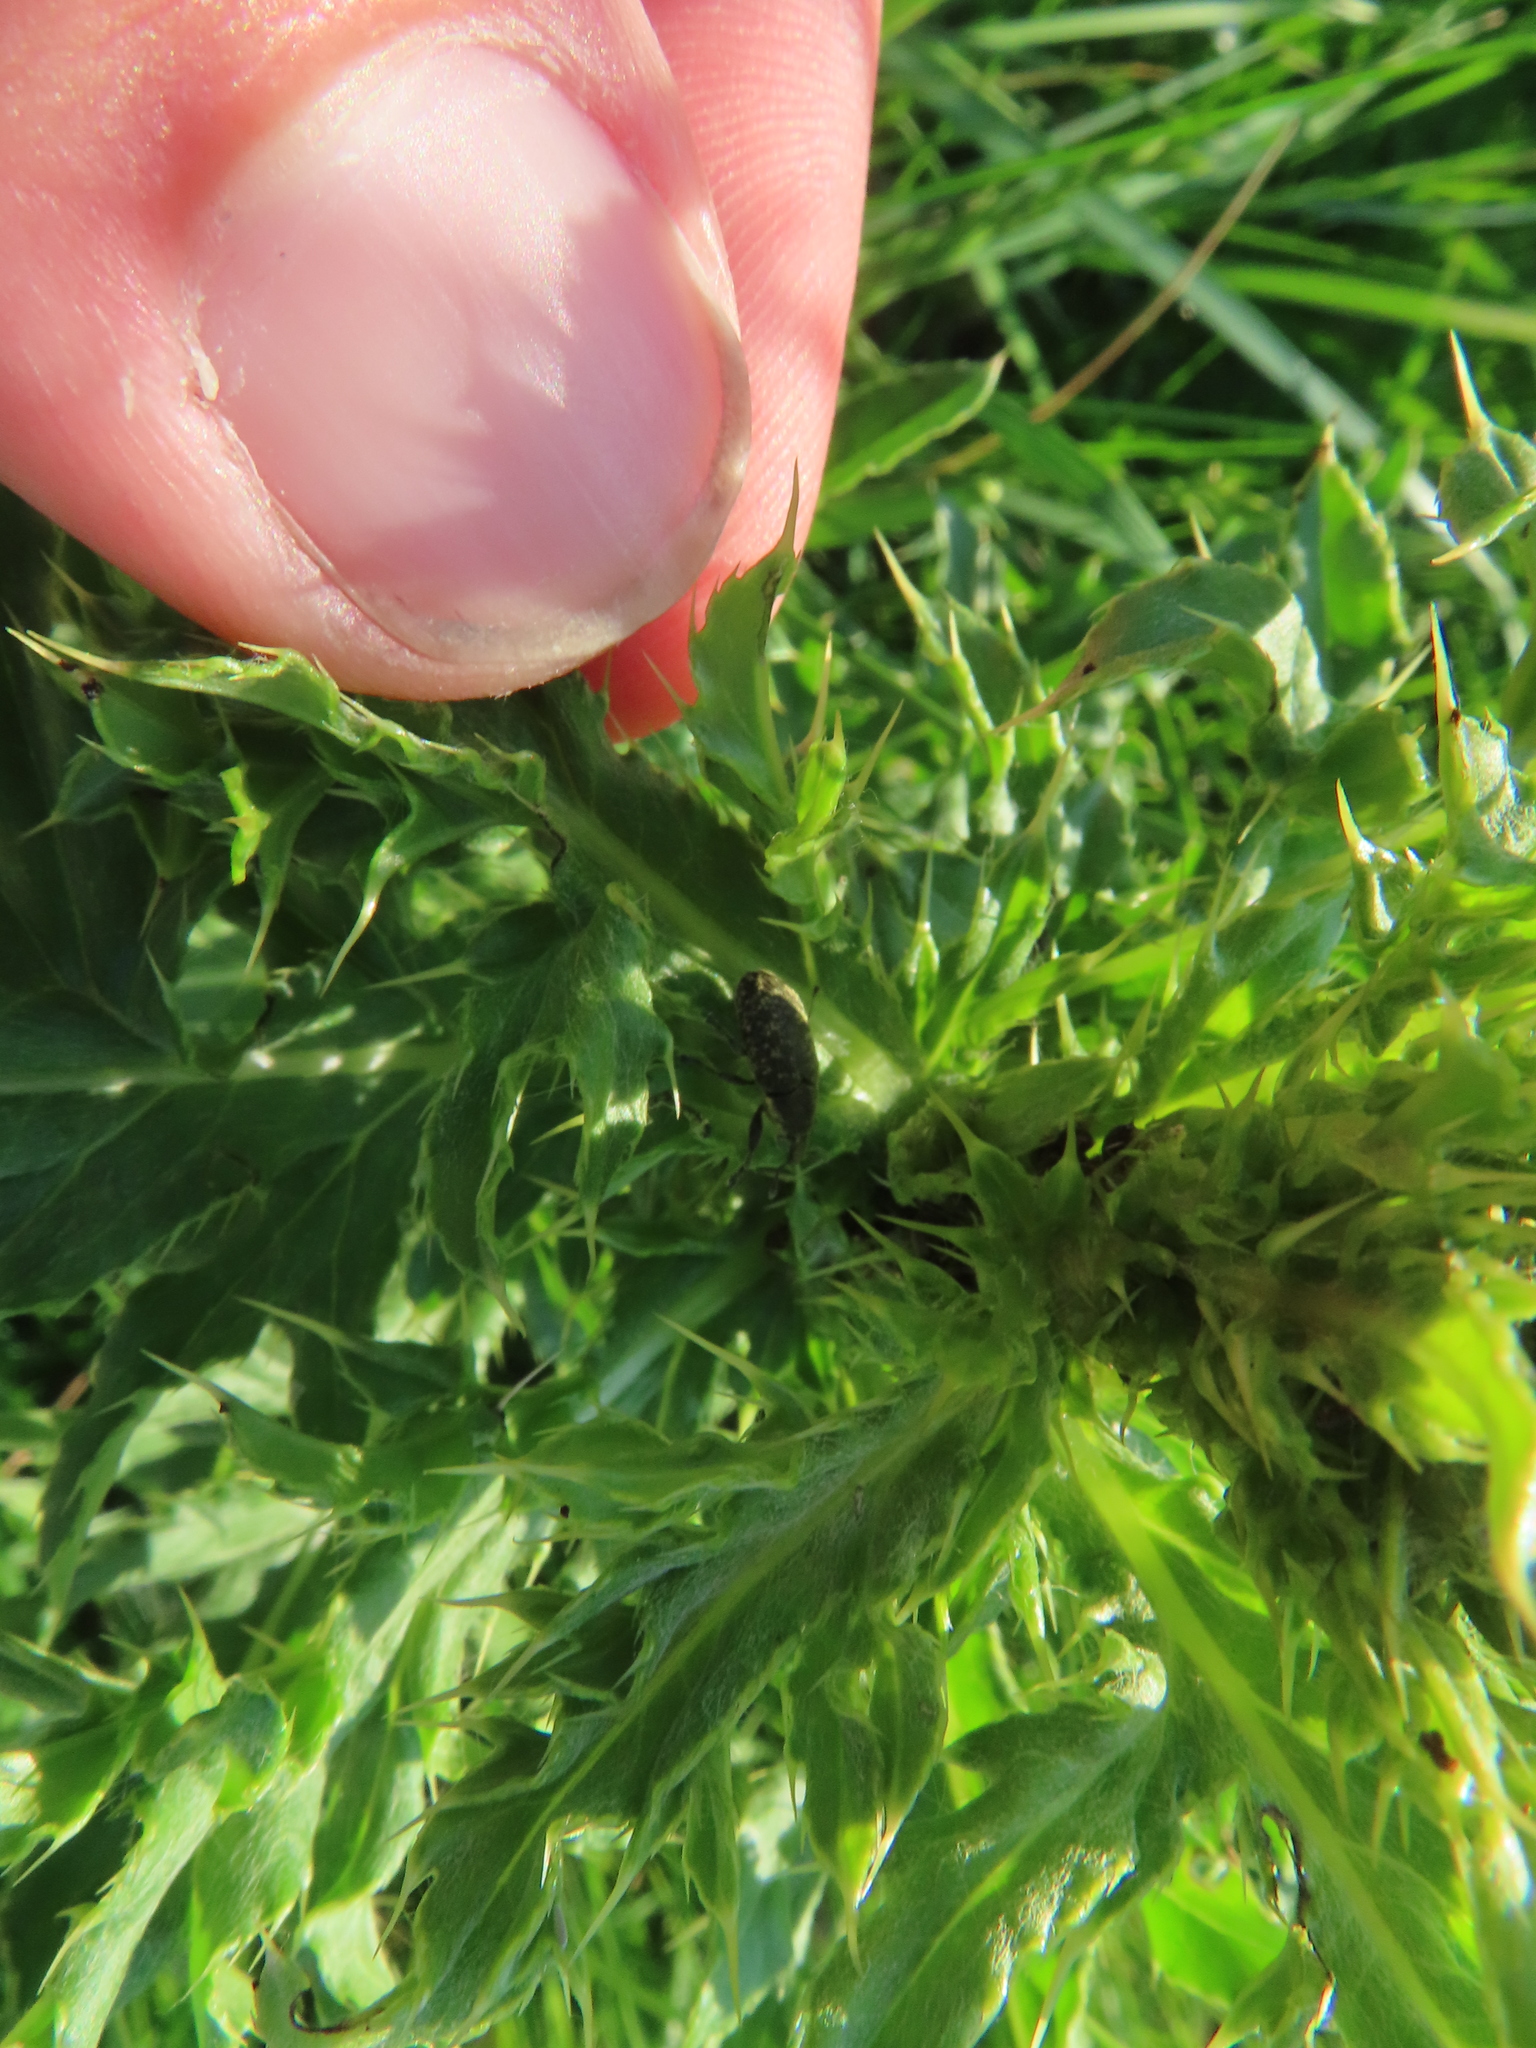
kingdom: Animalia
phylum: Arthropoda
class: Insecta
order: Coleoptera
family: Curculionidae
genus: Larinus
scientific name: Larinus carlinae
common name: Weevil
